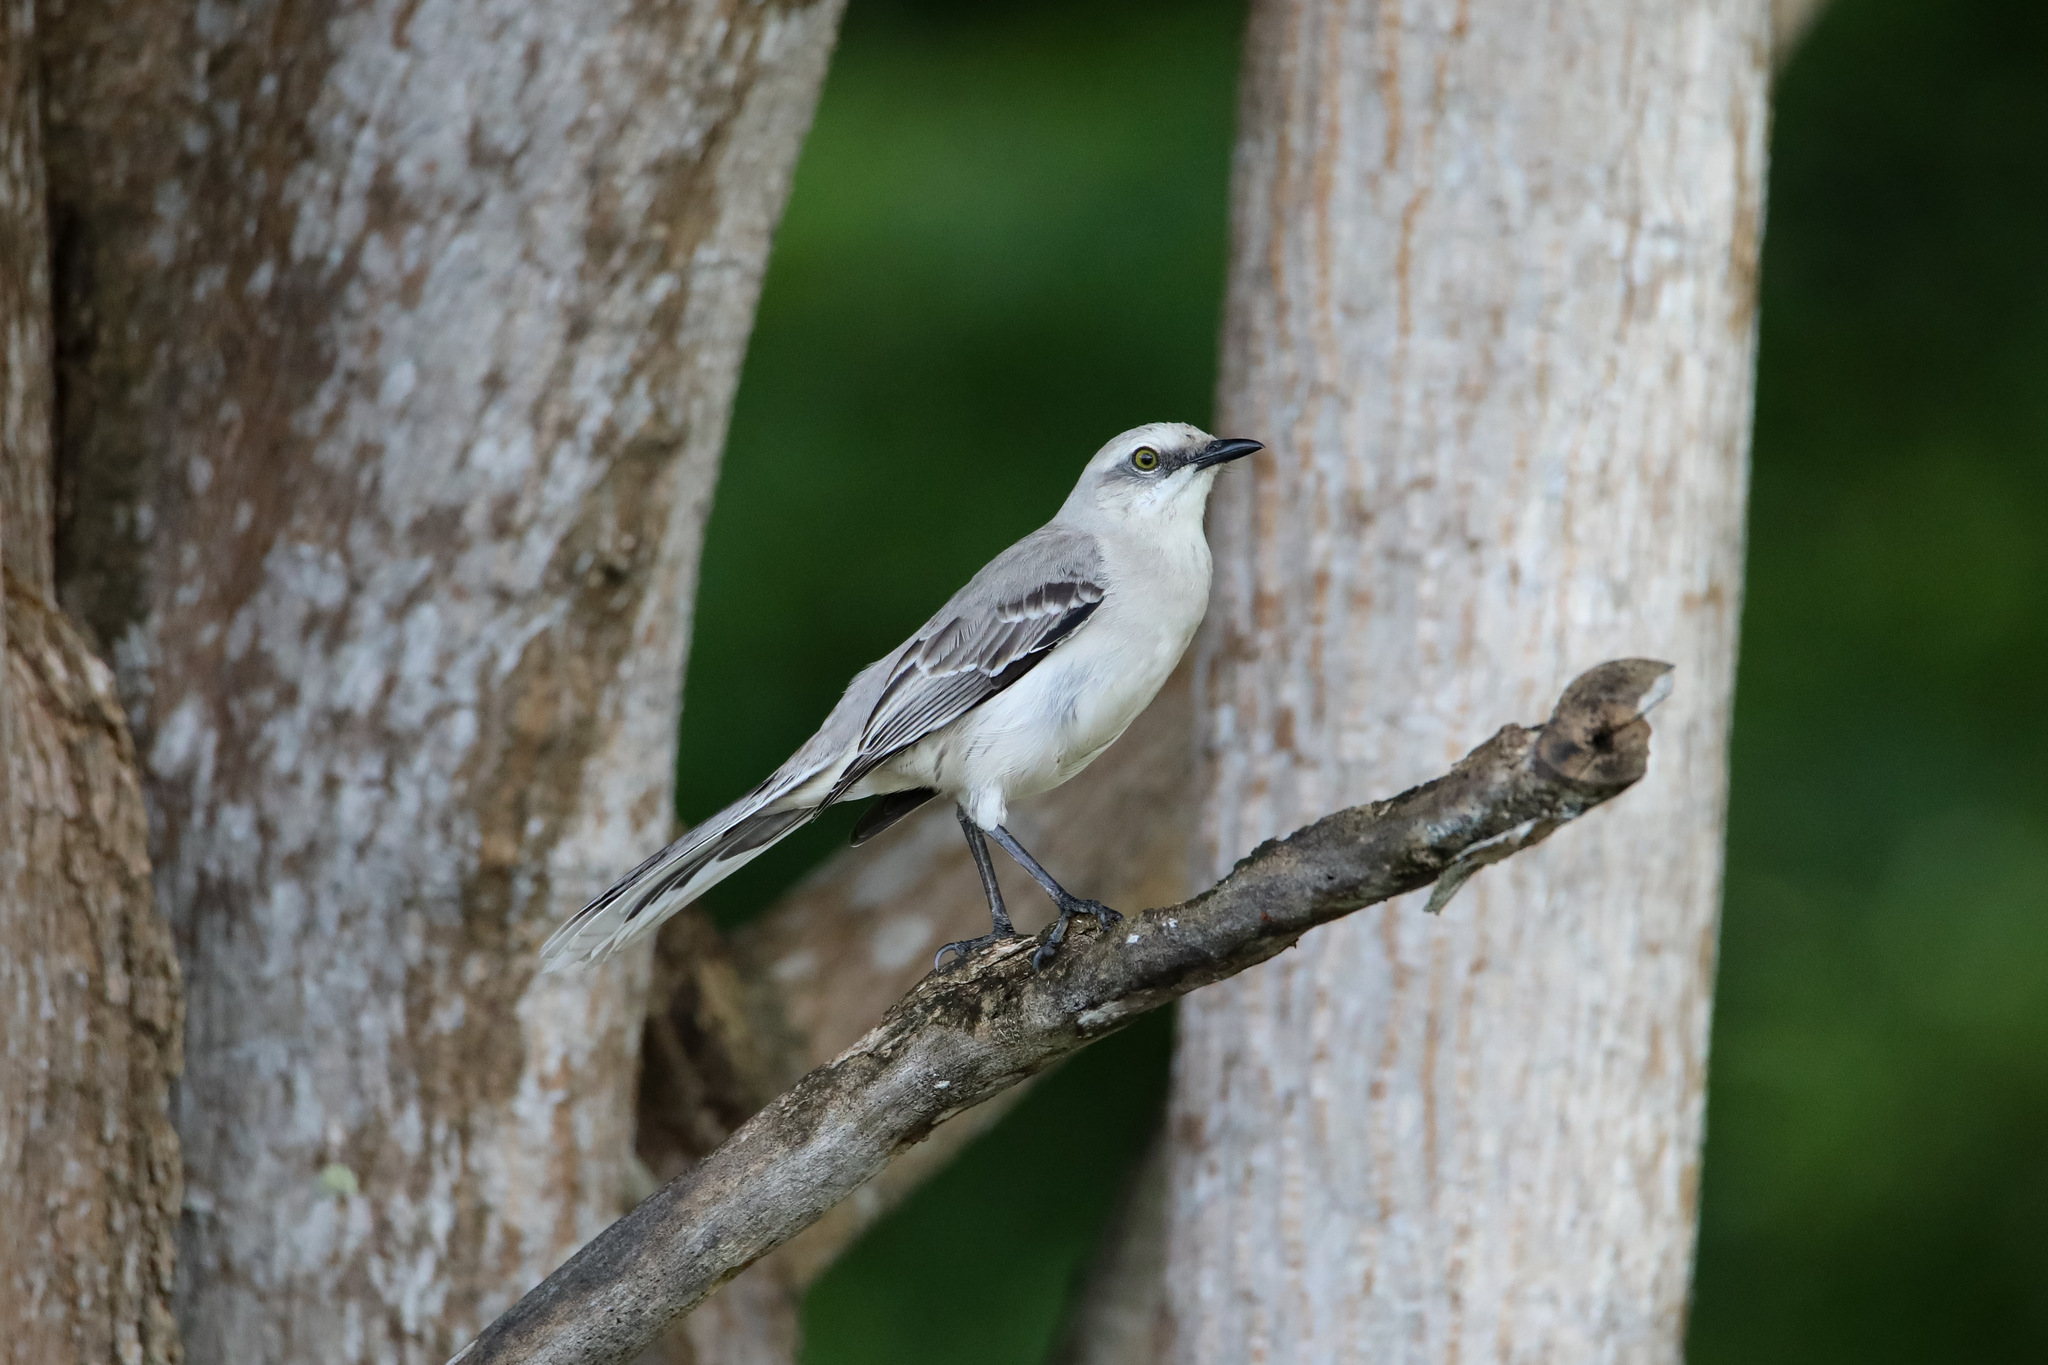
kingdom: Animalia
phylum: Chordata
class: Aves
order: Passeriformes
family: Mimidae
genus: Mimus
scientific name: Mimus gilvus
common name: Tropical mockingbird
